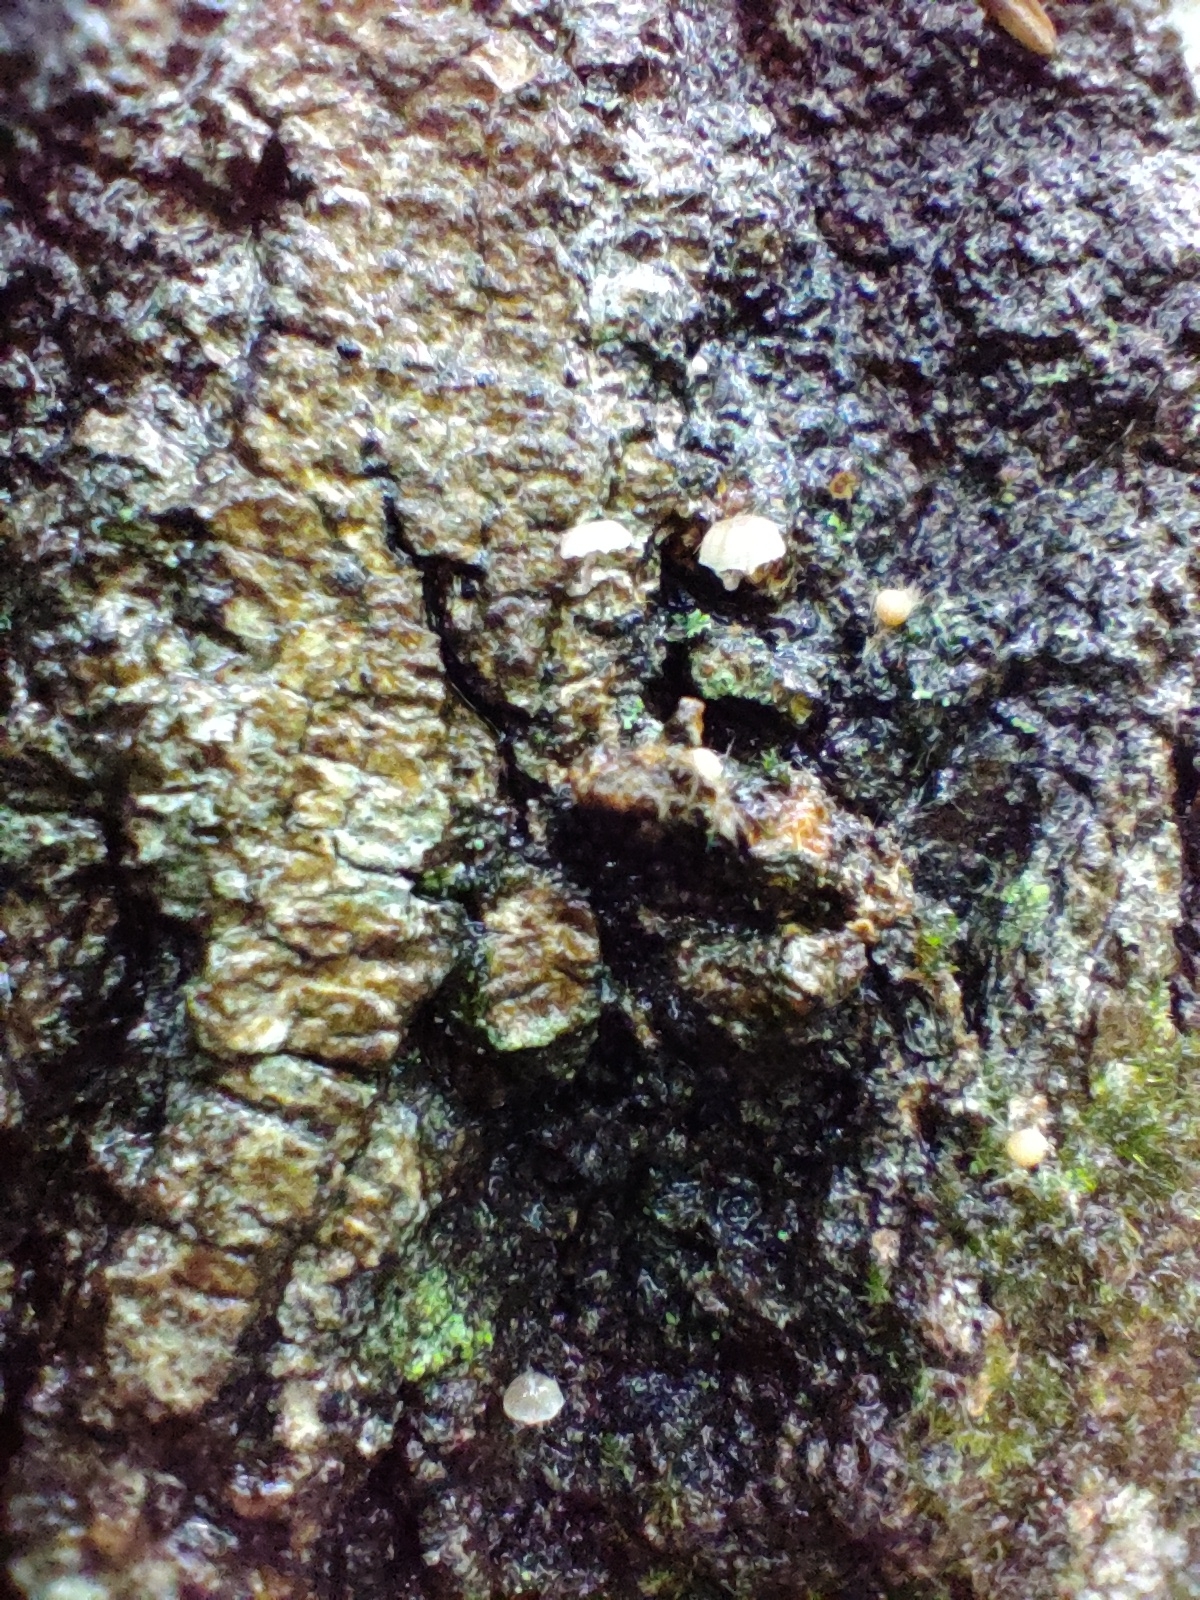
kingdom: Fungi
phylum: Basidiomycota
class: Agaricomycetes
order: Agaricales
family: Mycenaceae
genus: Mycena
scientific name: Mycena meliigena
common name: Mauve bonnet
